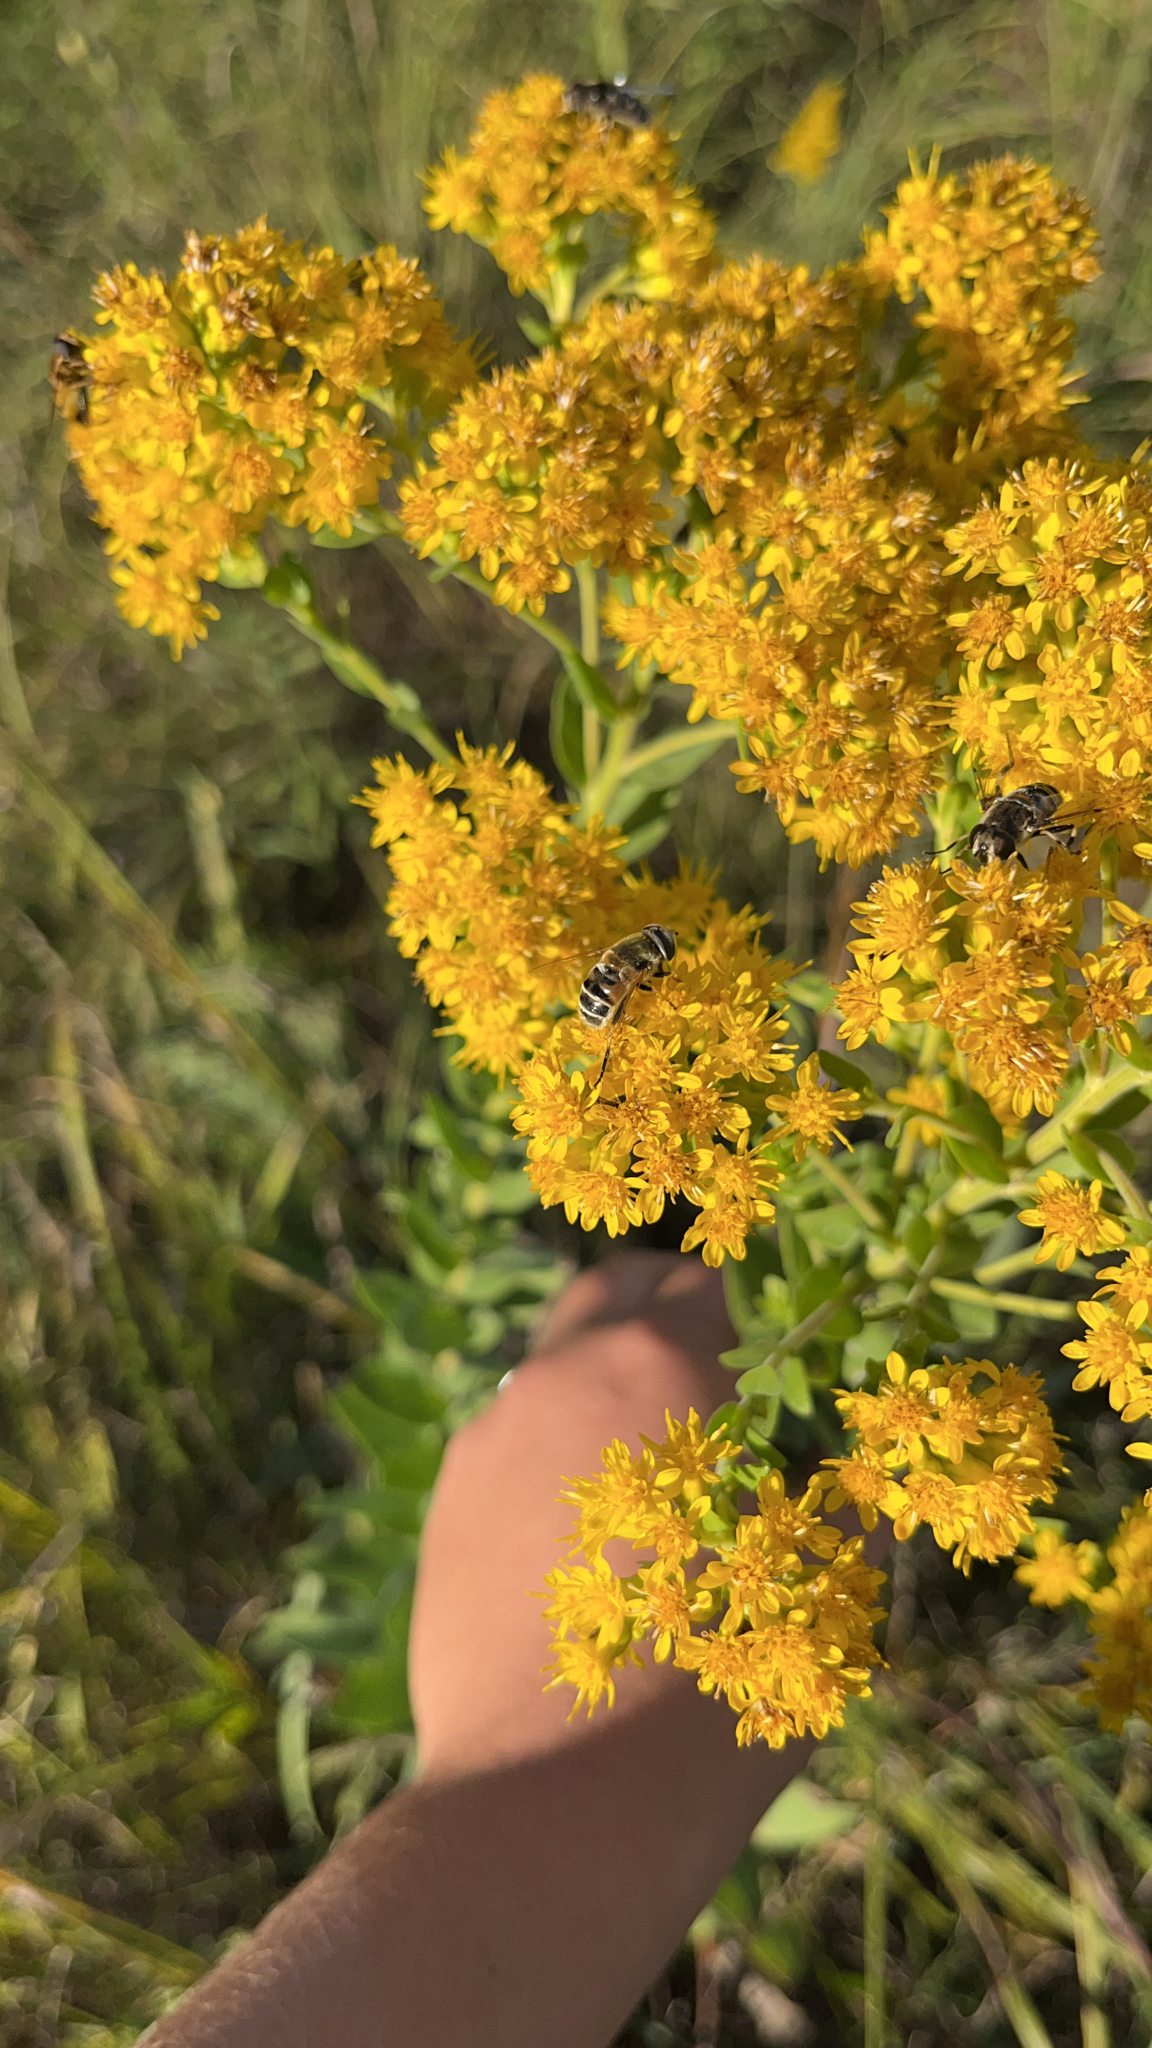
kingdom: Animalia
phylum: Arthropoda
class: Insecta
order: Diptera
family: Syrphidae
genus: Eristalis
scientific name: Eristalis stipator
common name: Yellow-shouldered drone fly
